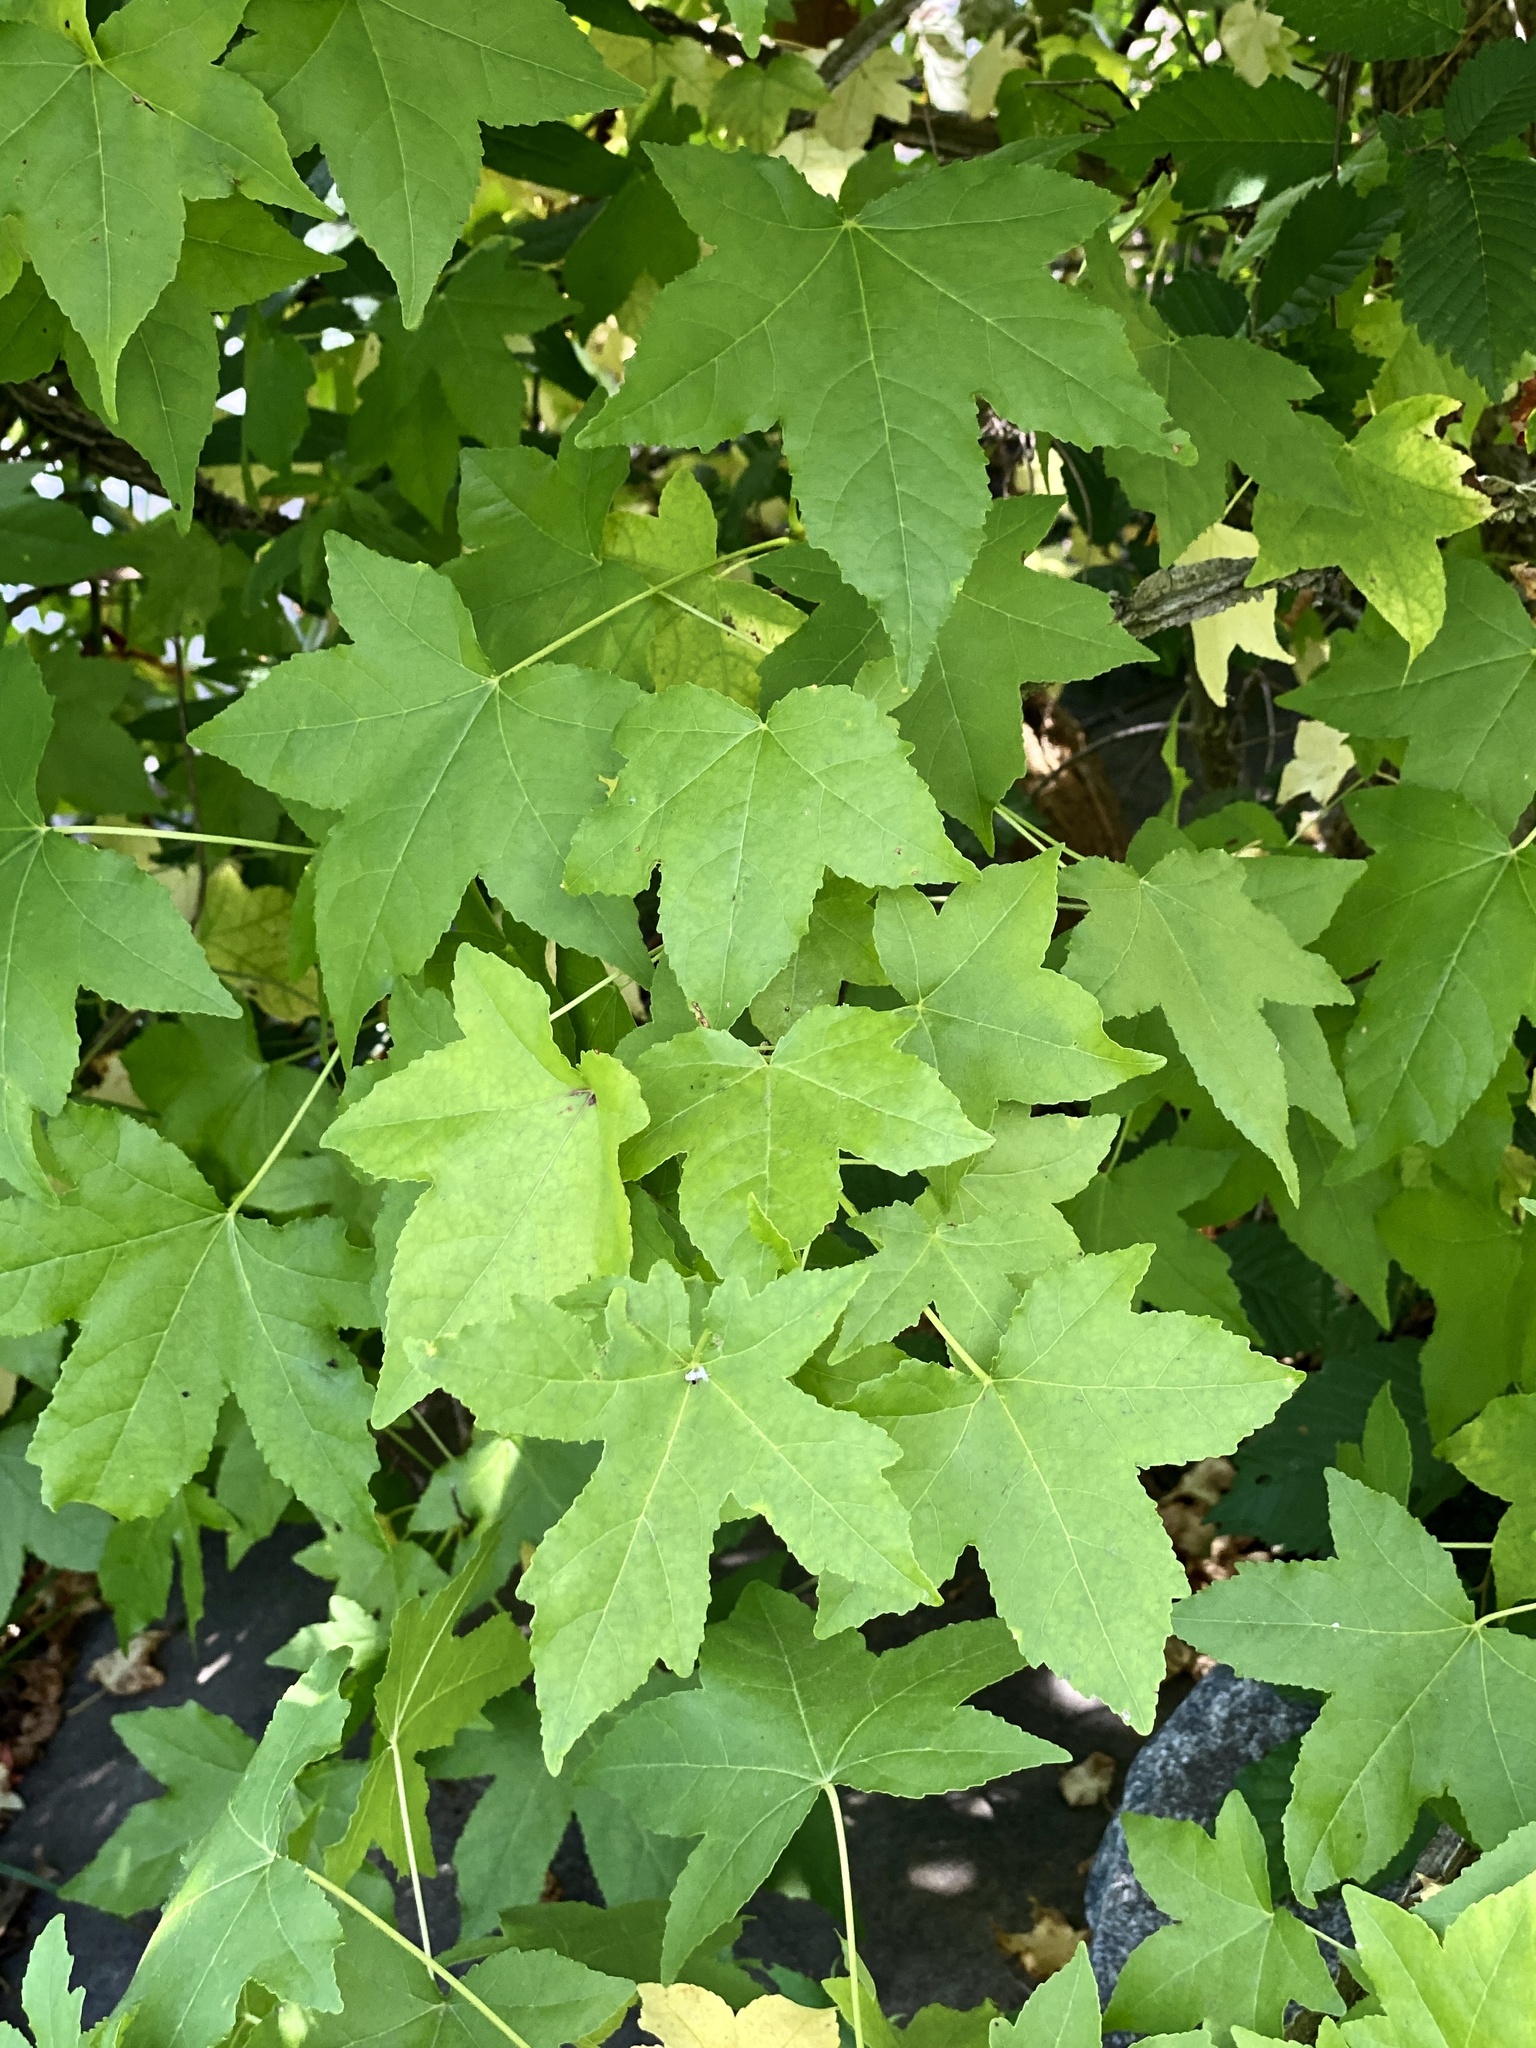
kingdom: Plantae
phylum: Tracheophyta
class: Magnoliopsida
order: Saxifragales
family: Altingiaceae
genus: Liquidambar
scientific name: Liquidambar styraciflua
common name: Sweet gum
